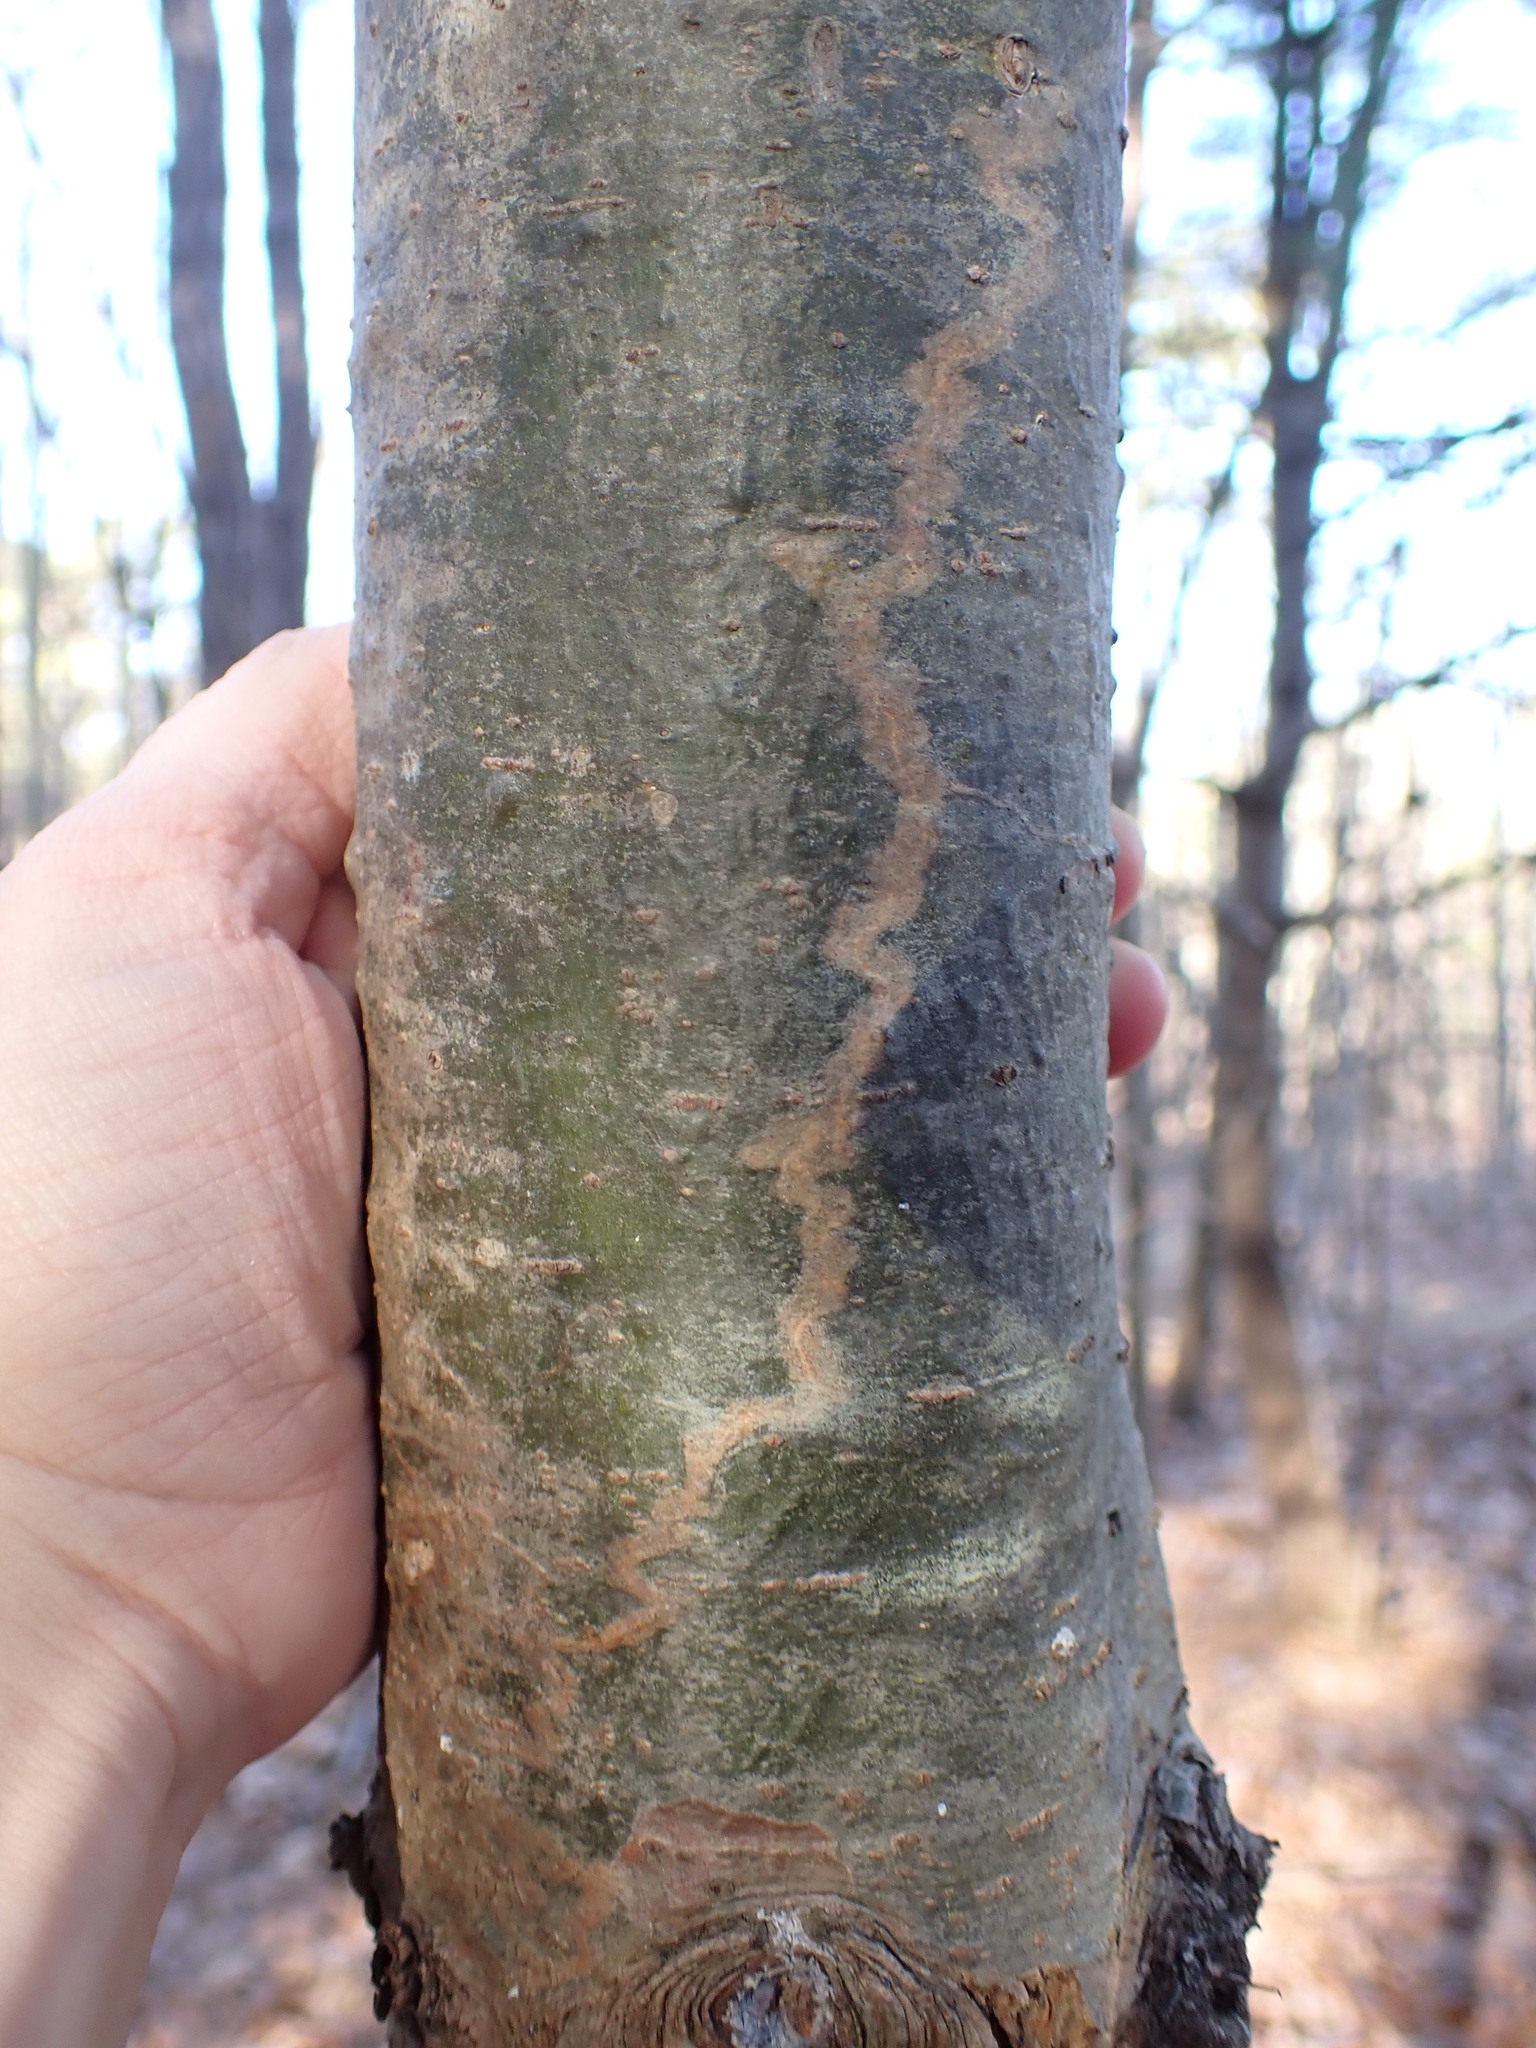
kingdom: Animalia
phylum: Arthropoda
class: Insecta
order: Lepidoptera
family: Gracillariidae
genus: Marmara
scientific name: Marmara fasciella
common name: White pine barkminer moth
